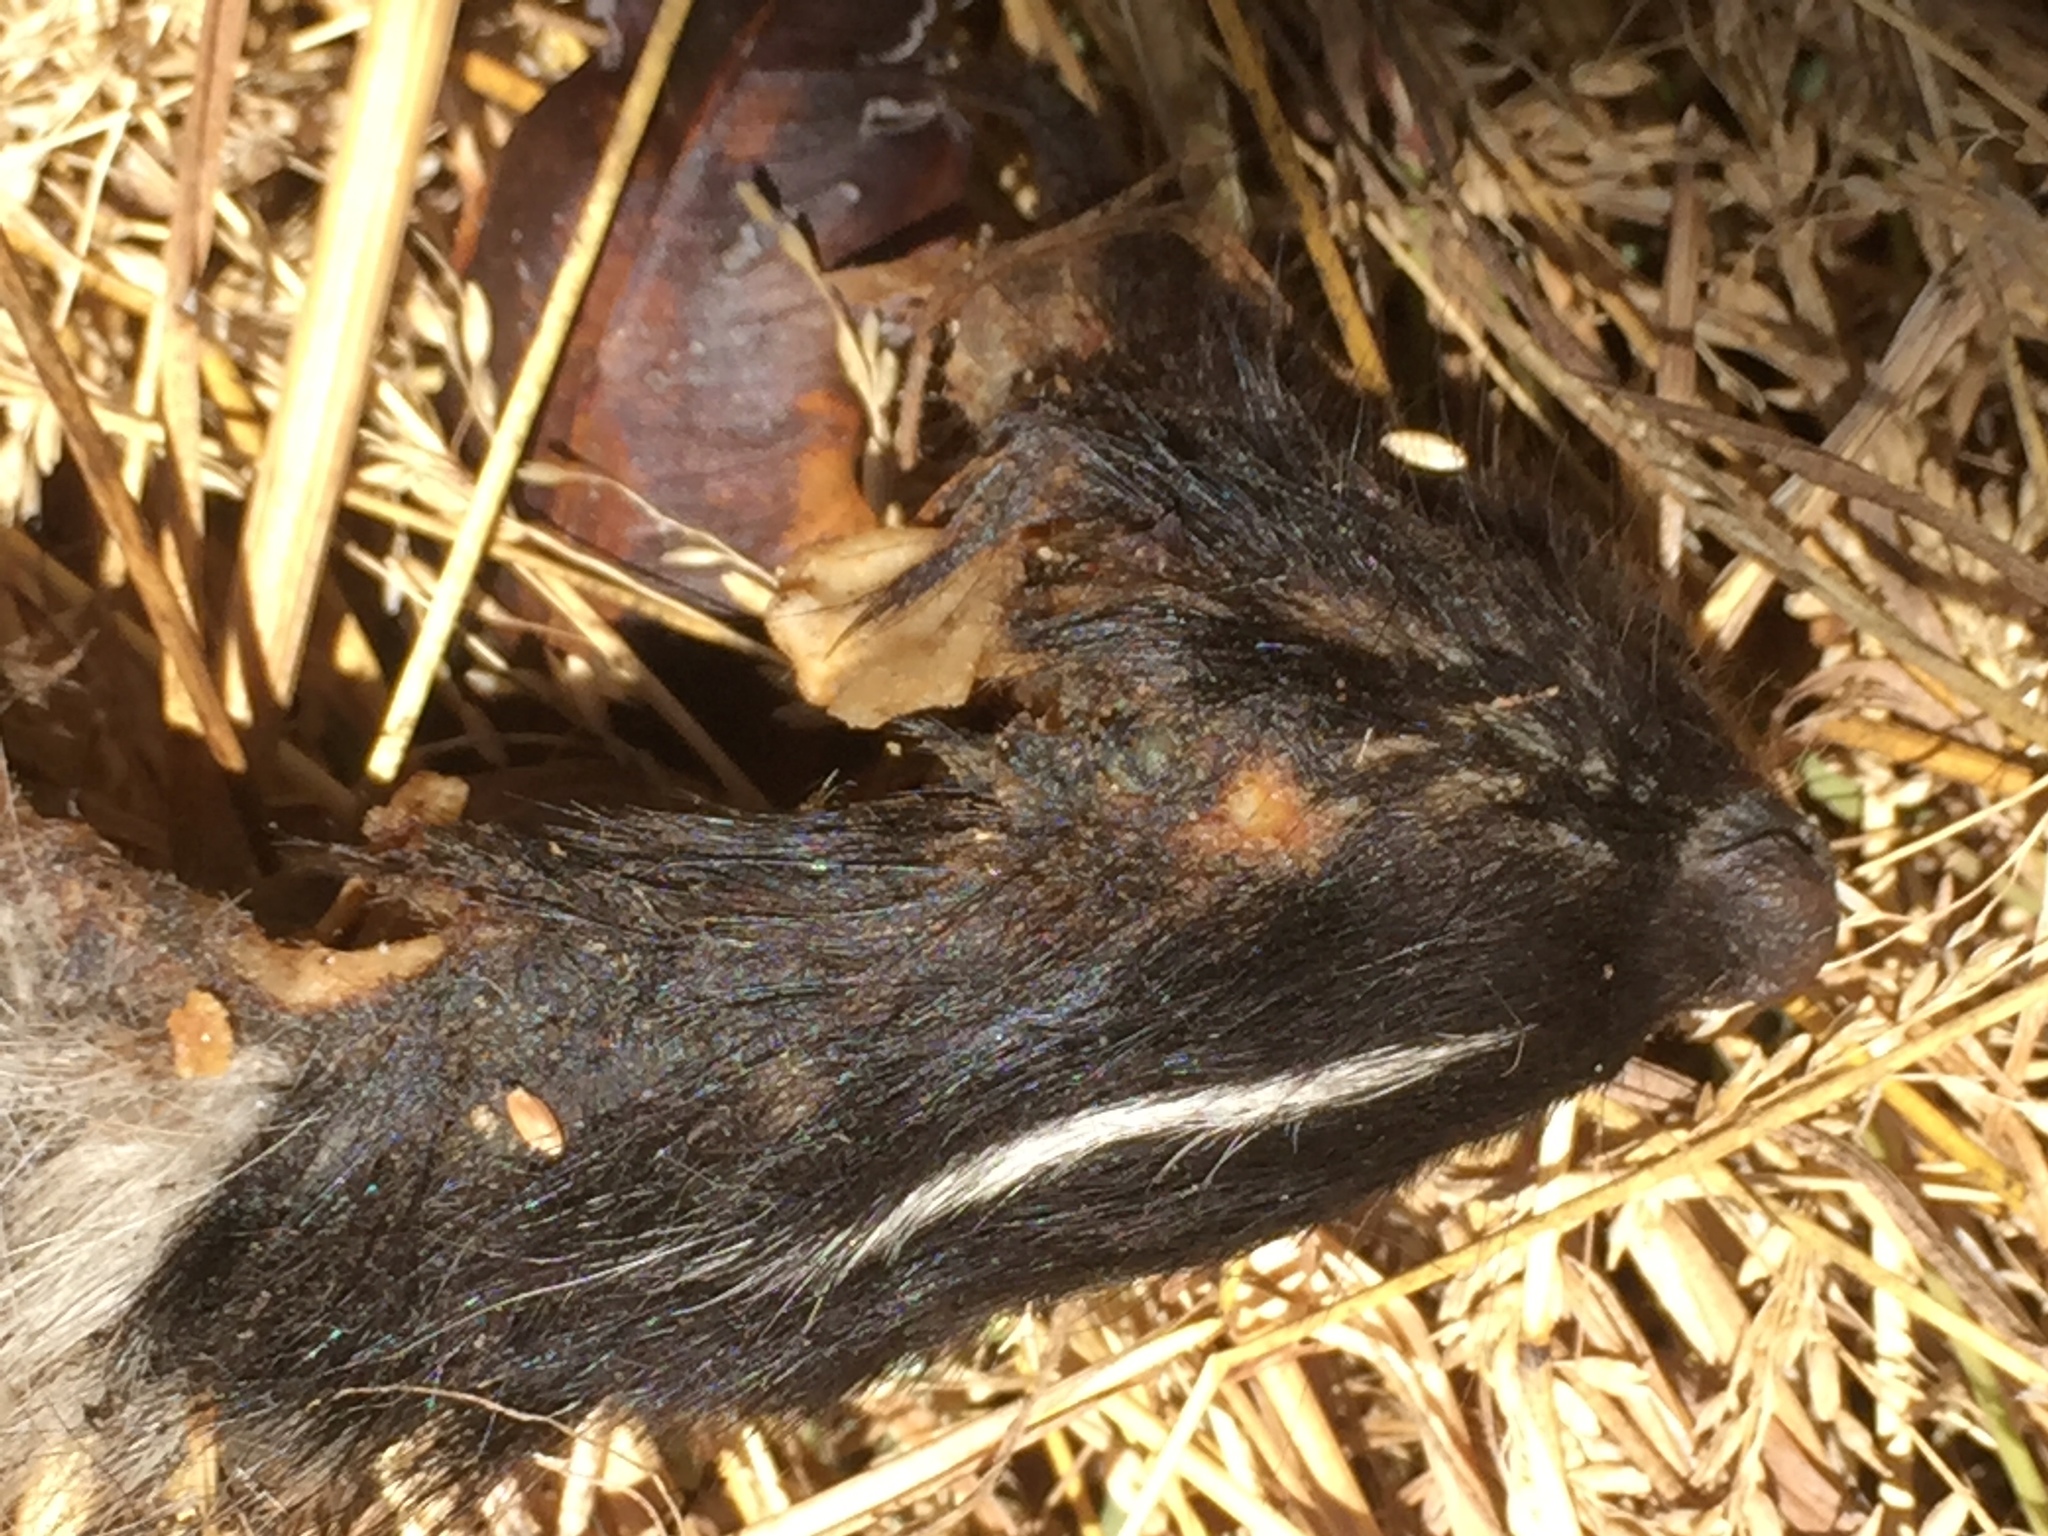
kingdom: Animalia
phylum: Chordata
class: Mammalia
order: Carnivora
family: Mephitidae
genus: Mephitis
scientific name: Mephitis mephitis
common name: Striped skunk
